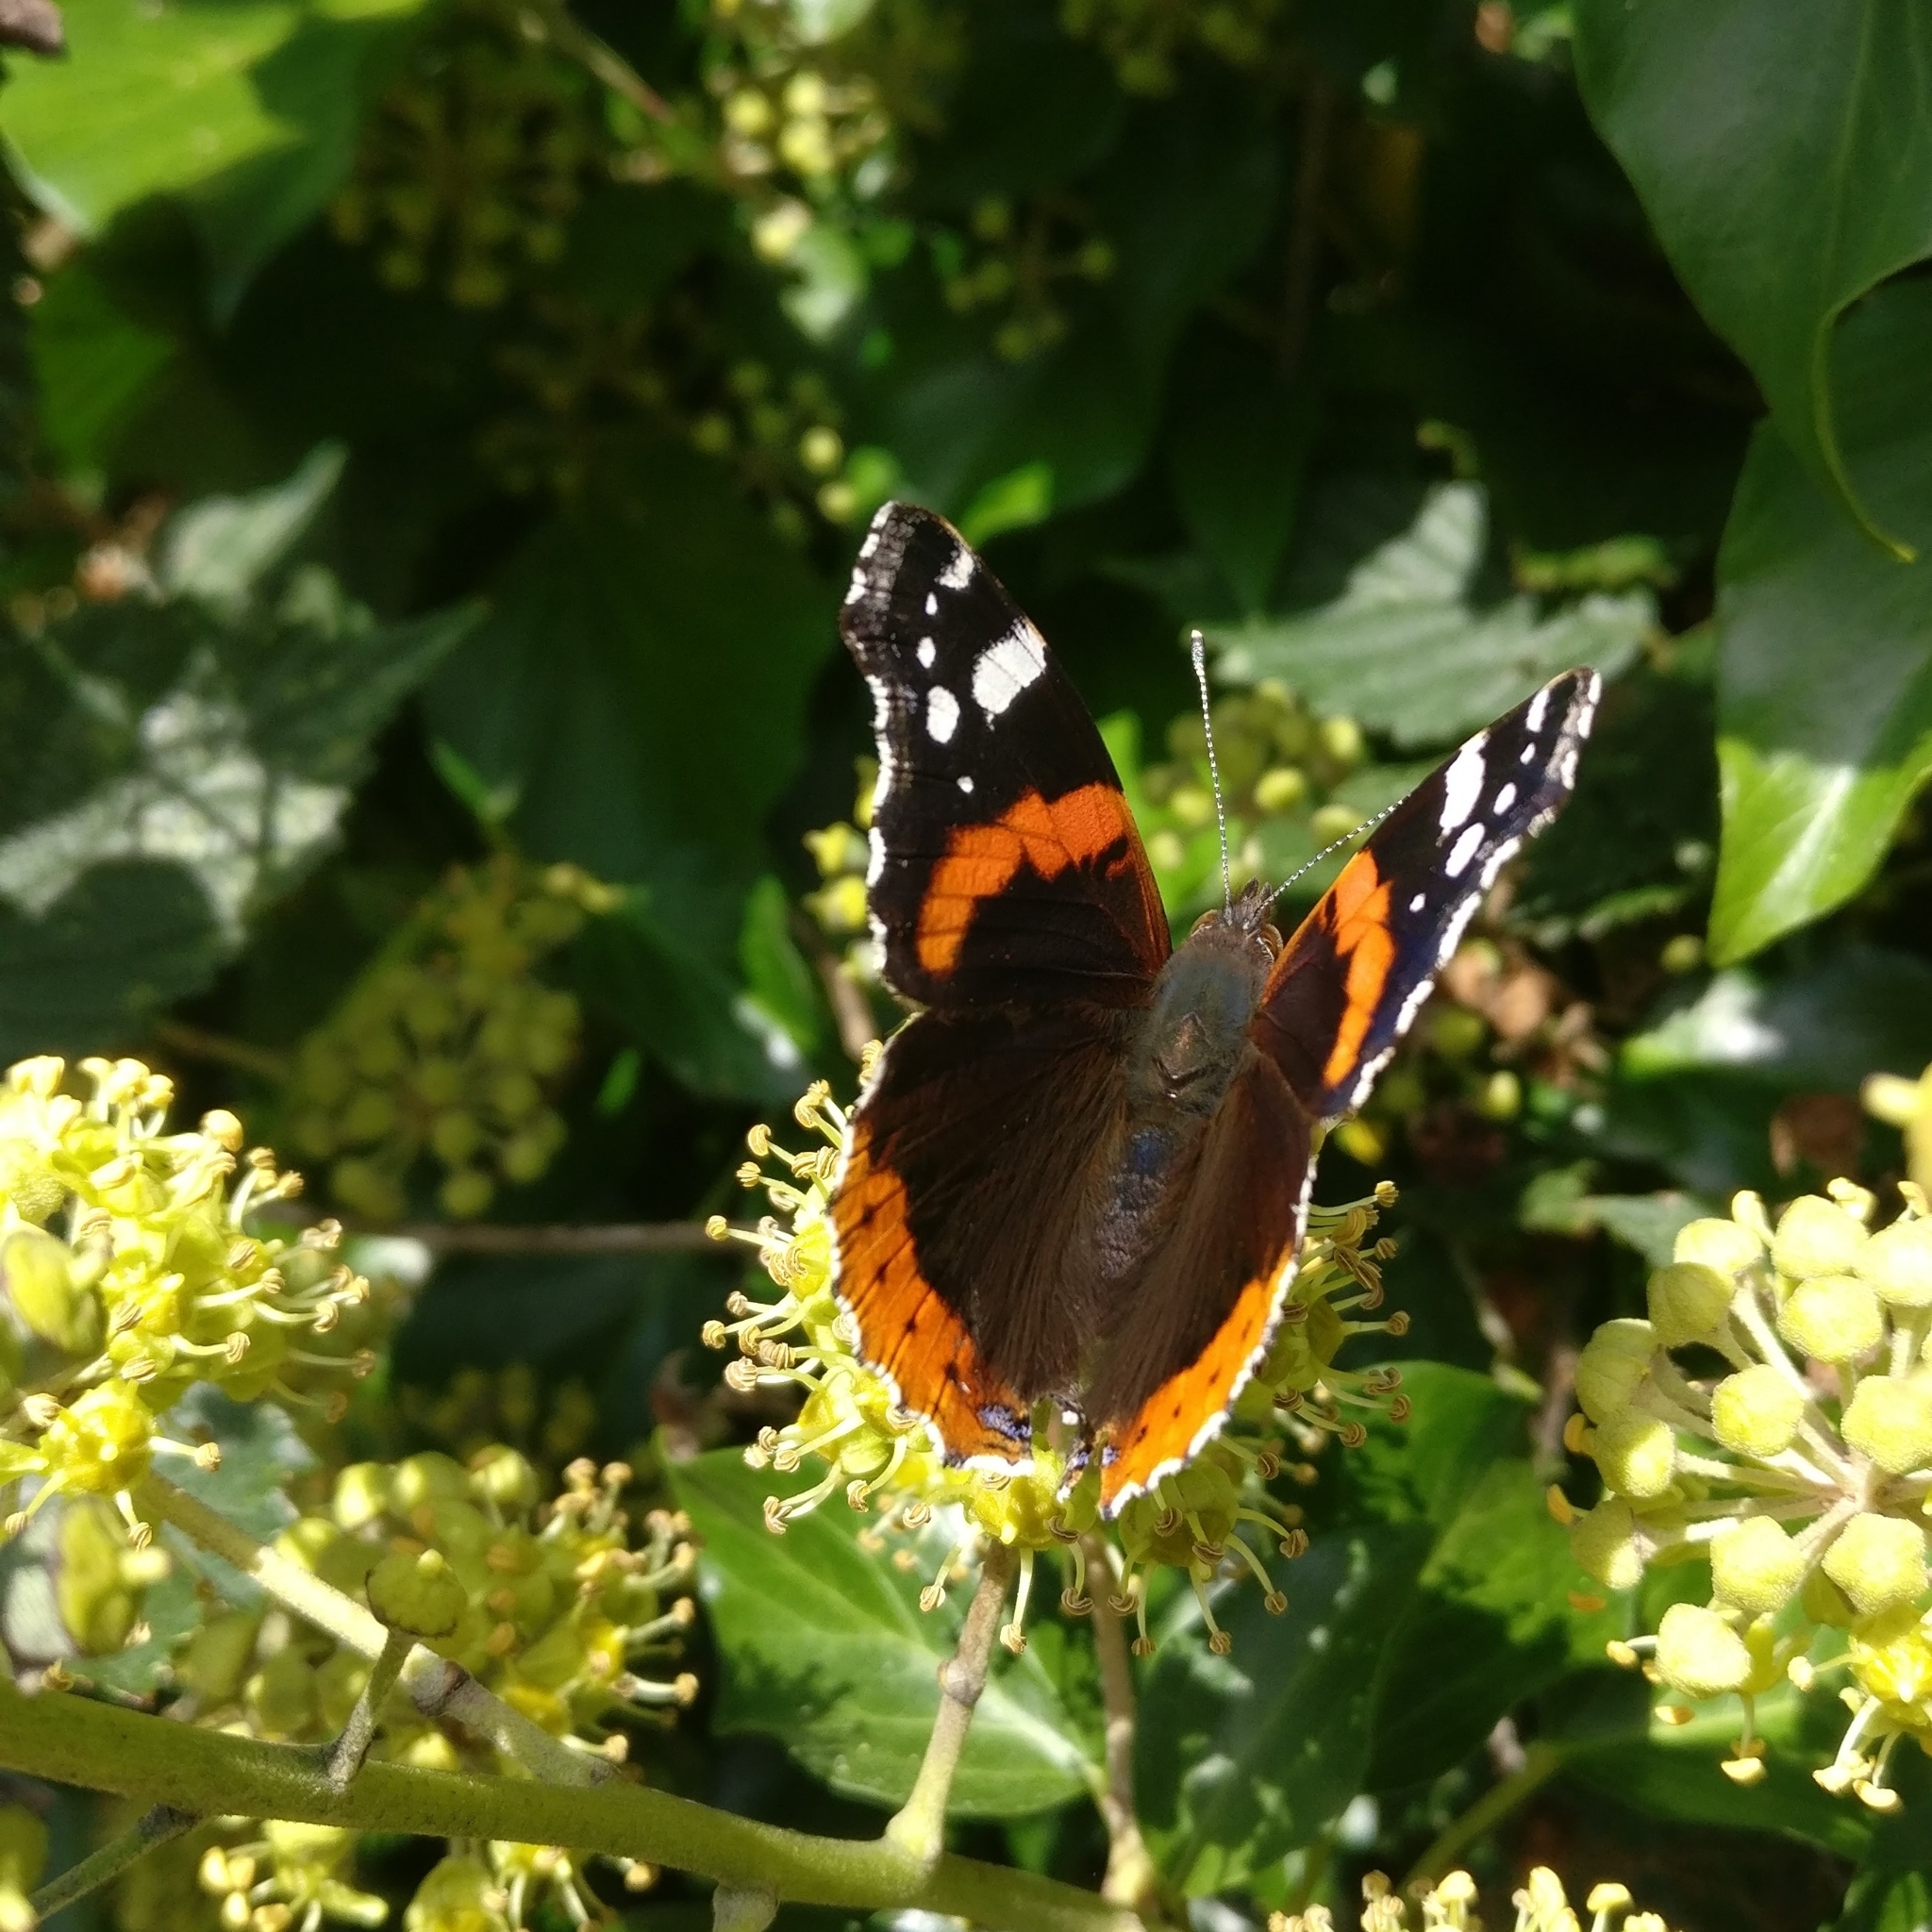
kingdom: Animalia
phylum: Arthropoda
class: Insecta
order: Lepidoptera
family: Nymphalidae
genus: Vanessa
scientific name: Vanessa atalanta
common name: Red admiral
